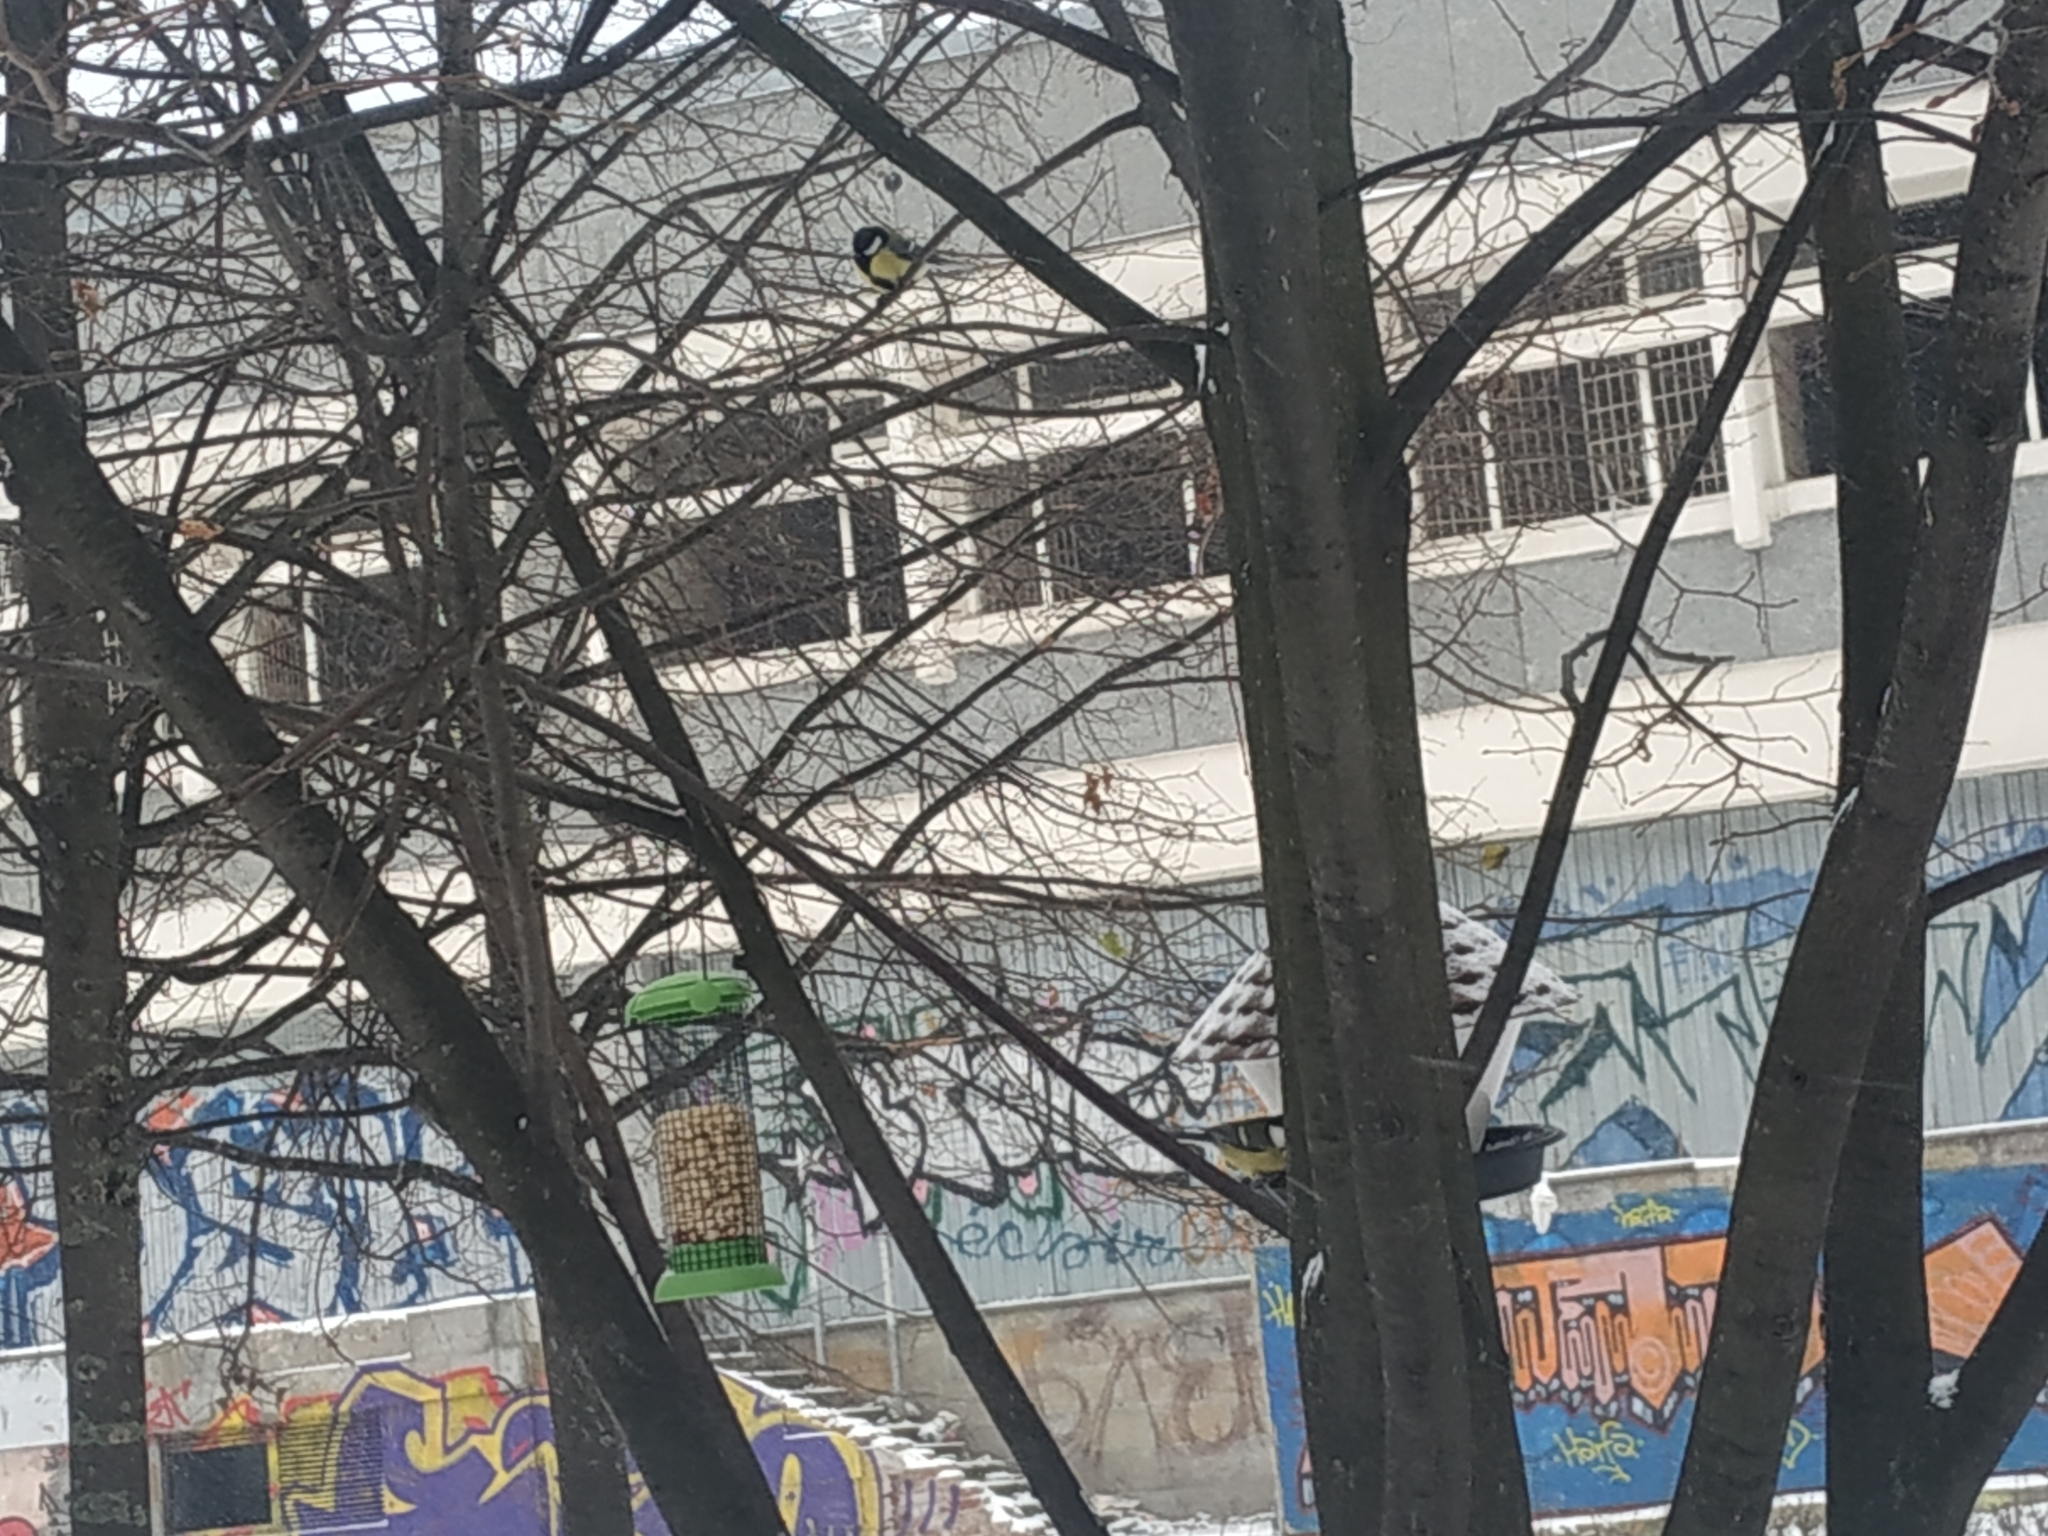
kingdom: Animalia
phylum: Chordata
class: Aves
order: Passeriformes
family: Paridae
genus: Parus
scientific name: Parus major
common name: Great tit
